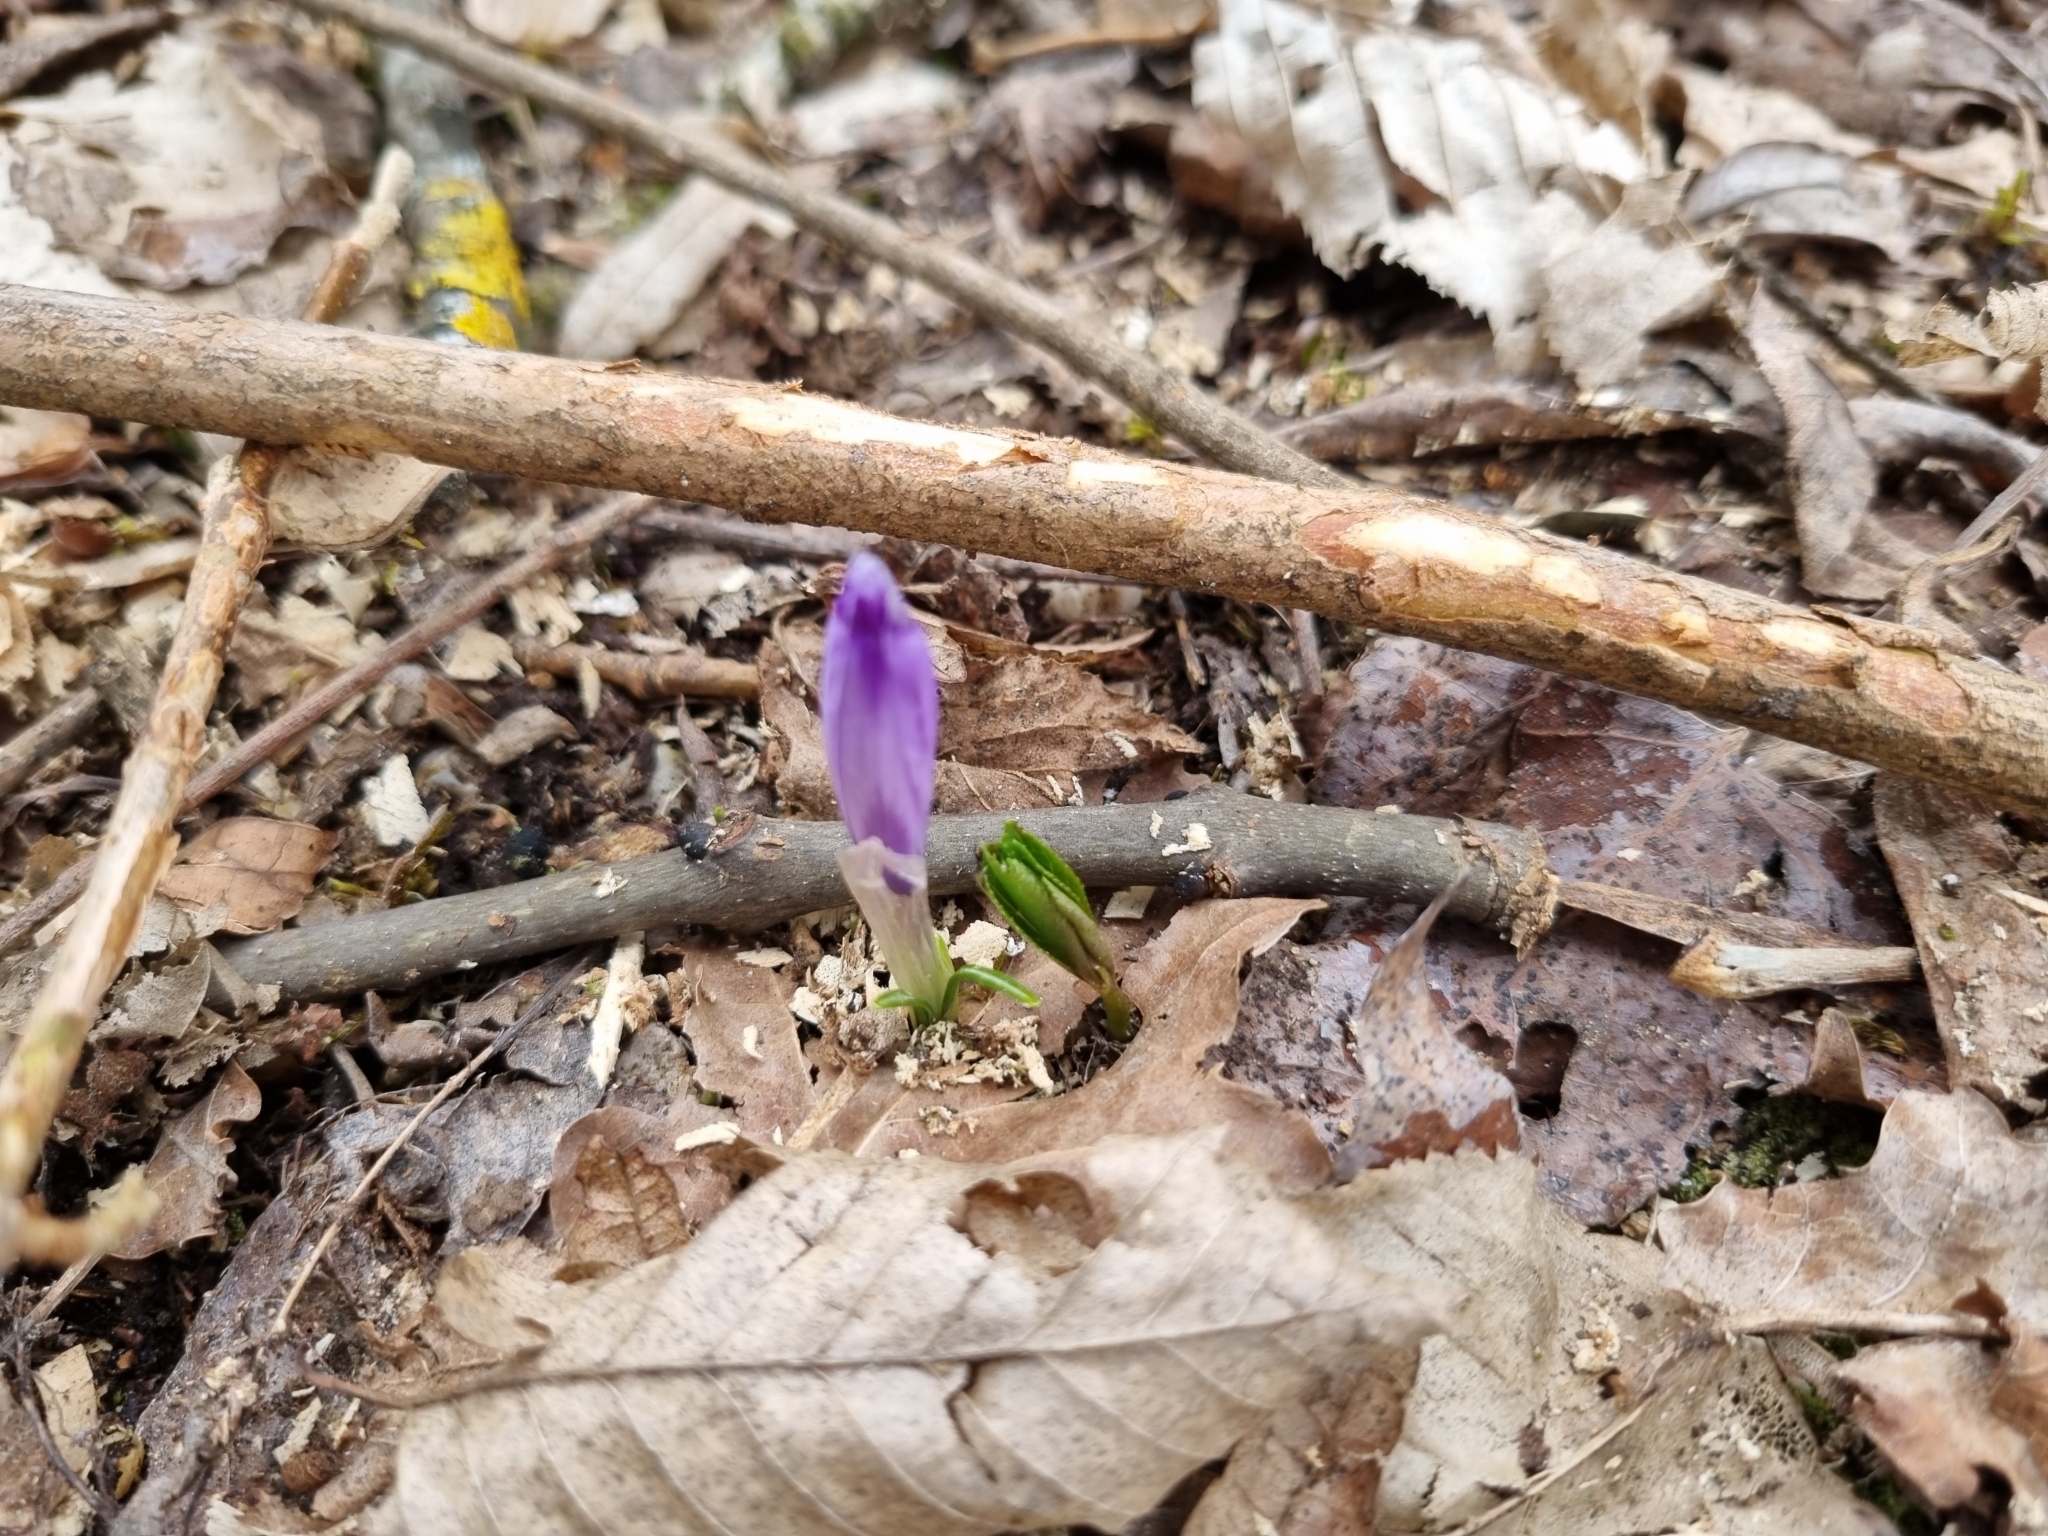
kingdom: Plantae
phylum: Tracheophyta
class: Liliopsida
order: Asparagales
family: Iridaceae
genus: Crocus
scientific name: Crocus heuffelianus
